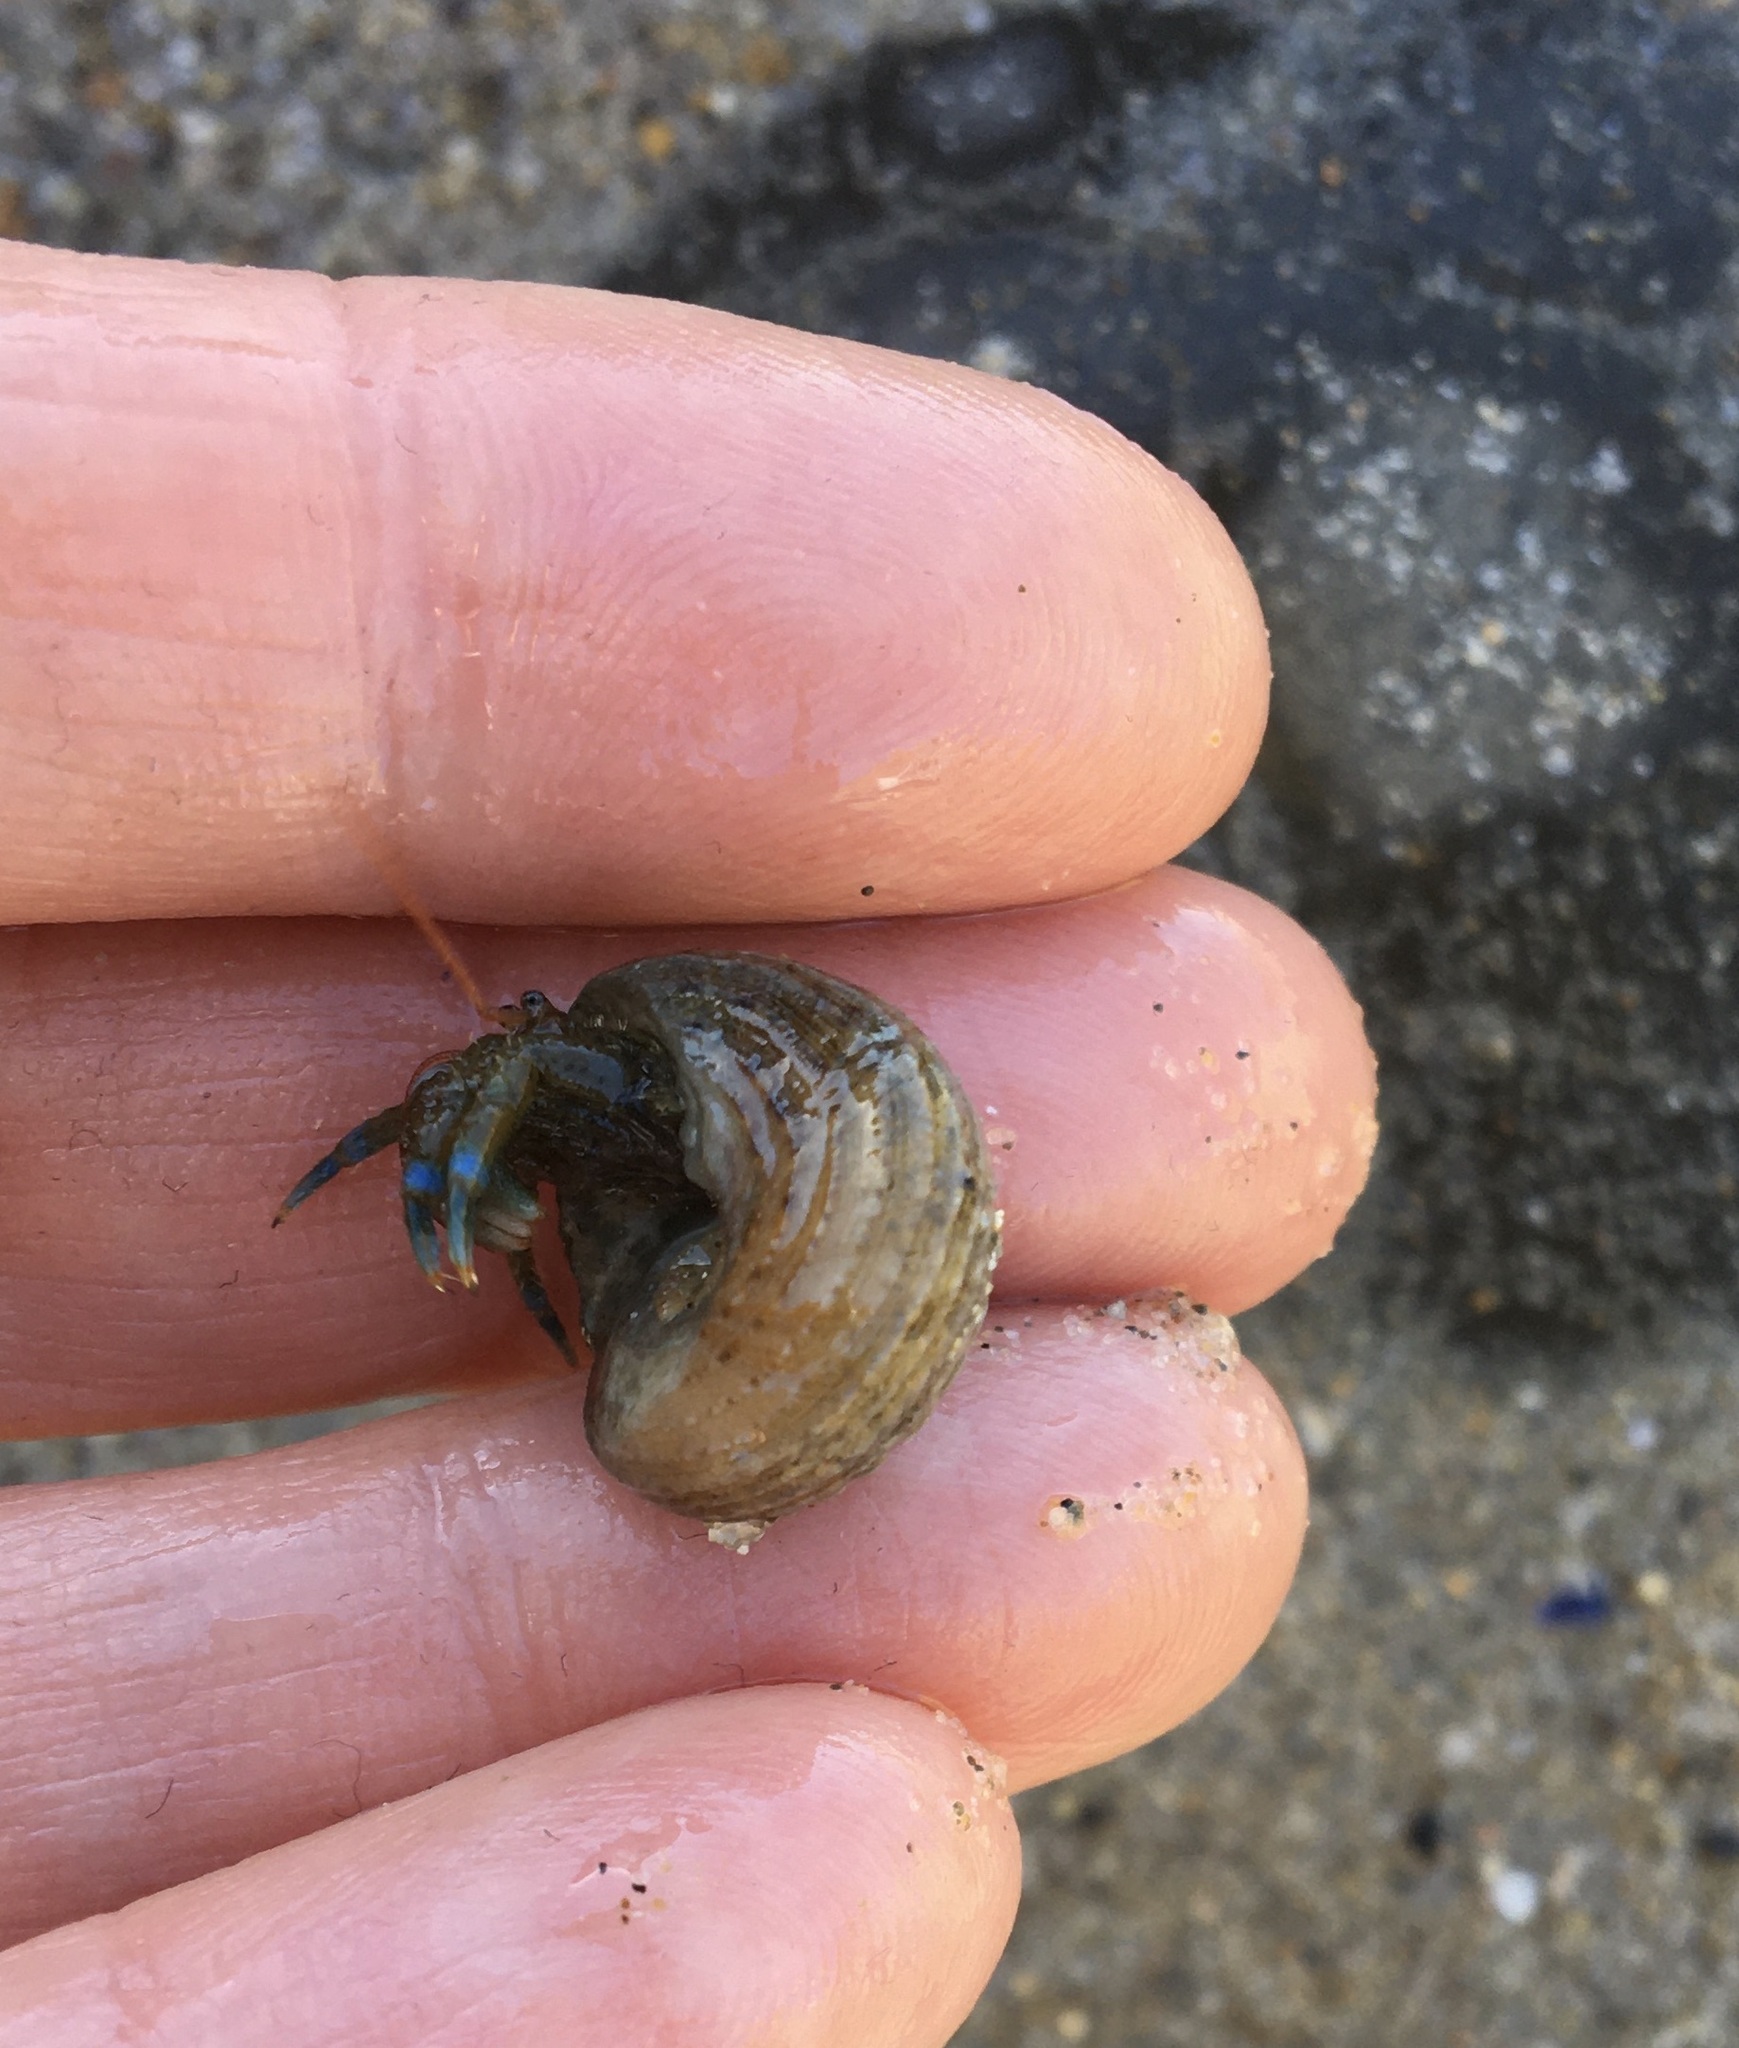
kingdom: Animalia
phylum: Arthropoda
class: Malacostraca
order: Decapoda
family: Paguridae
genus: Pagurus
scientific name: Pagurus samuelis
